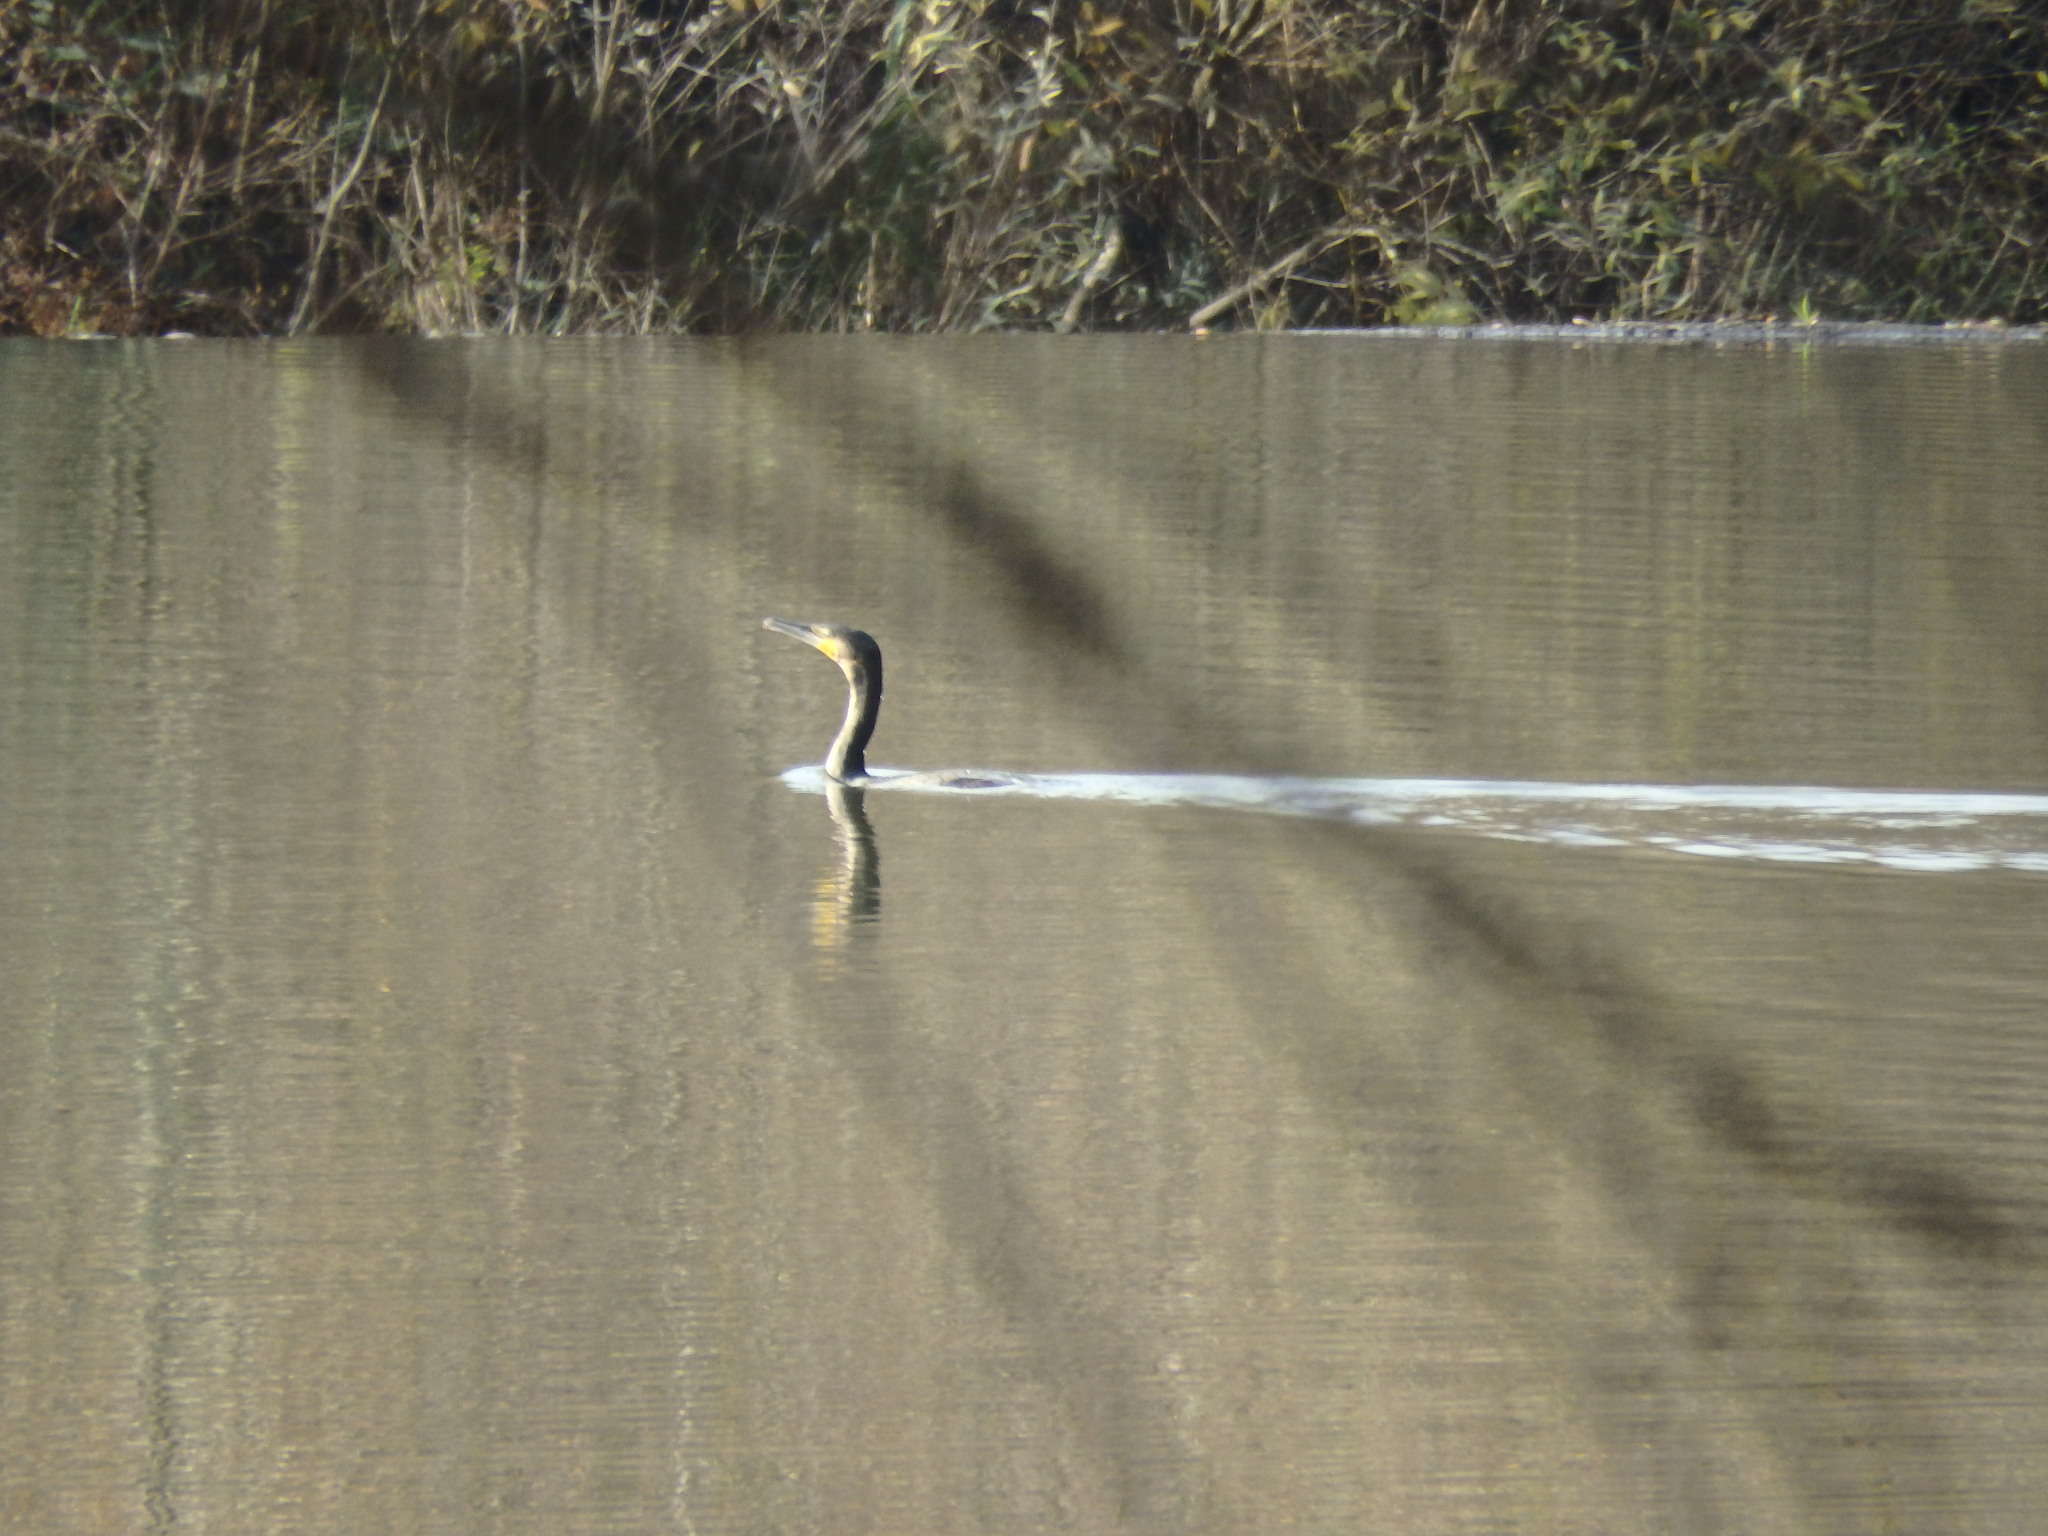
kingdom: Animalia
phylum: Chordata
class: Aves
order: Suliformes
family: Phalacrocoracidae
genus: Phalacrocorax
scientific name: Phalacrocorax carbo
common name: Great cormorant
